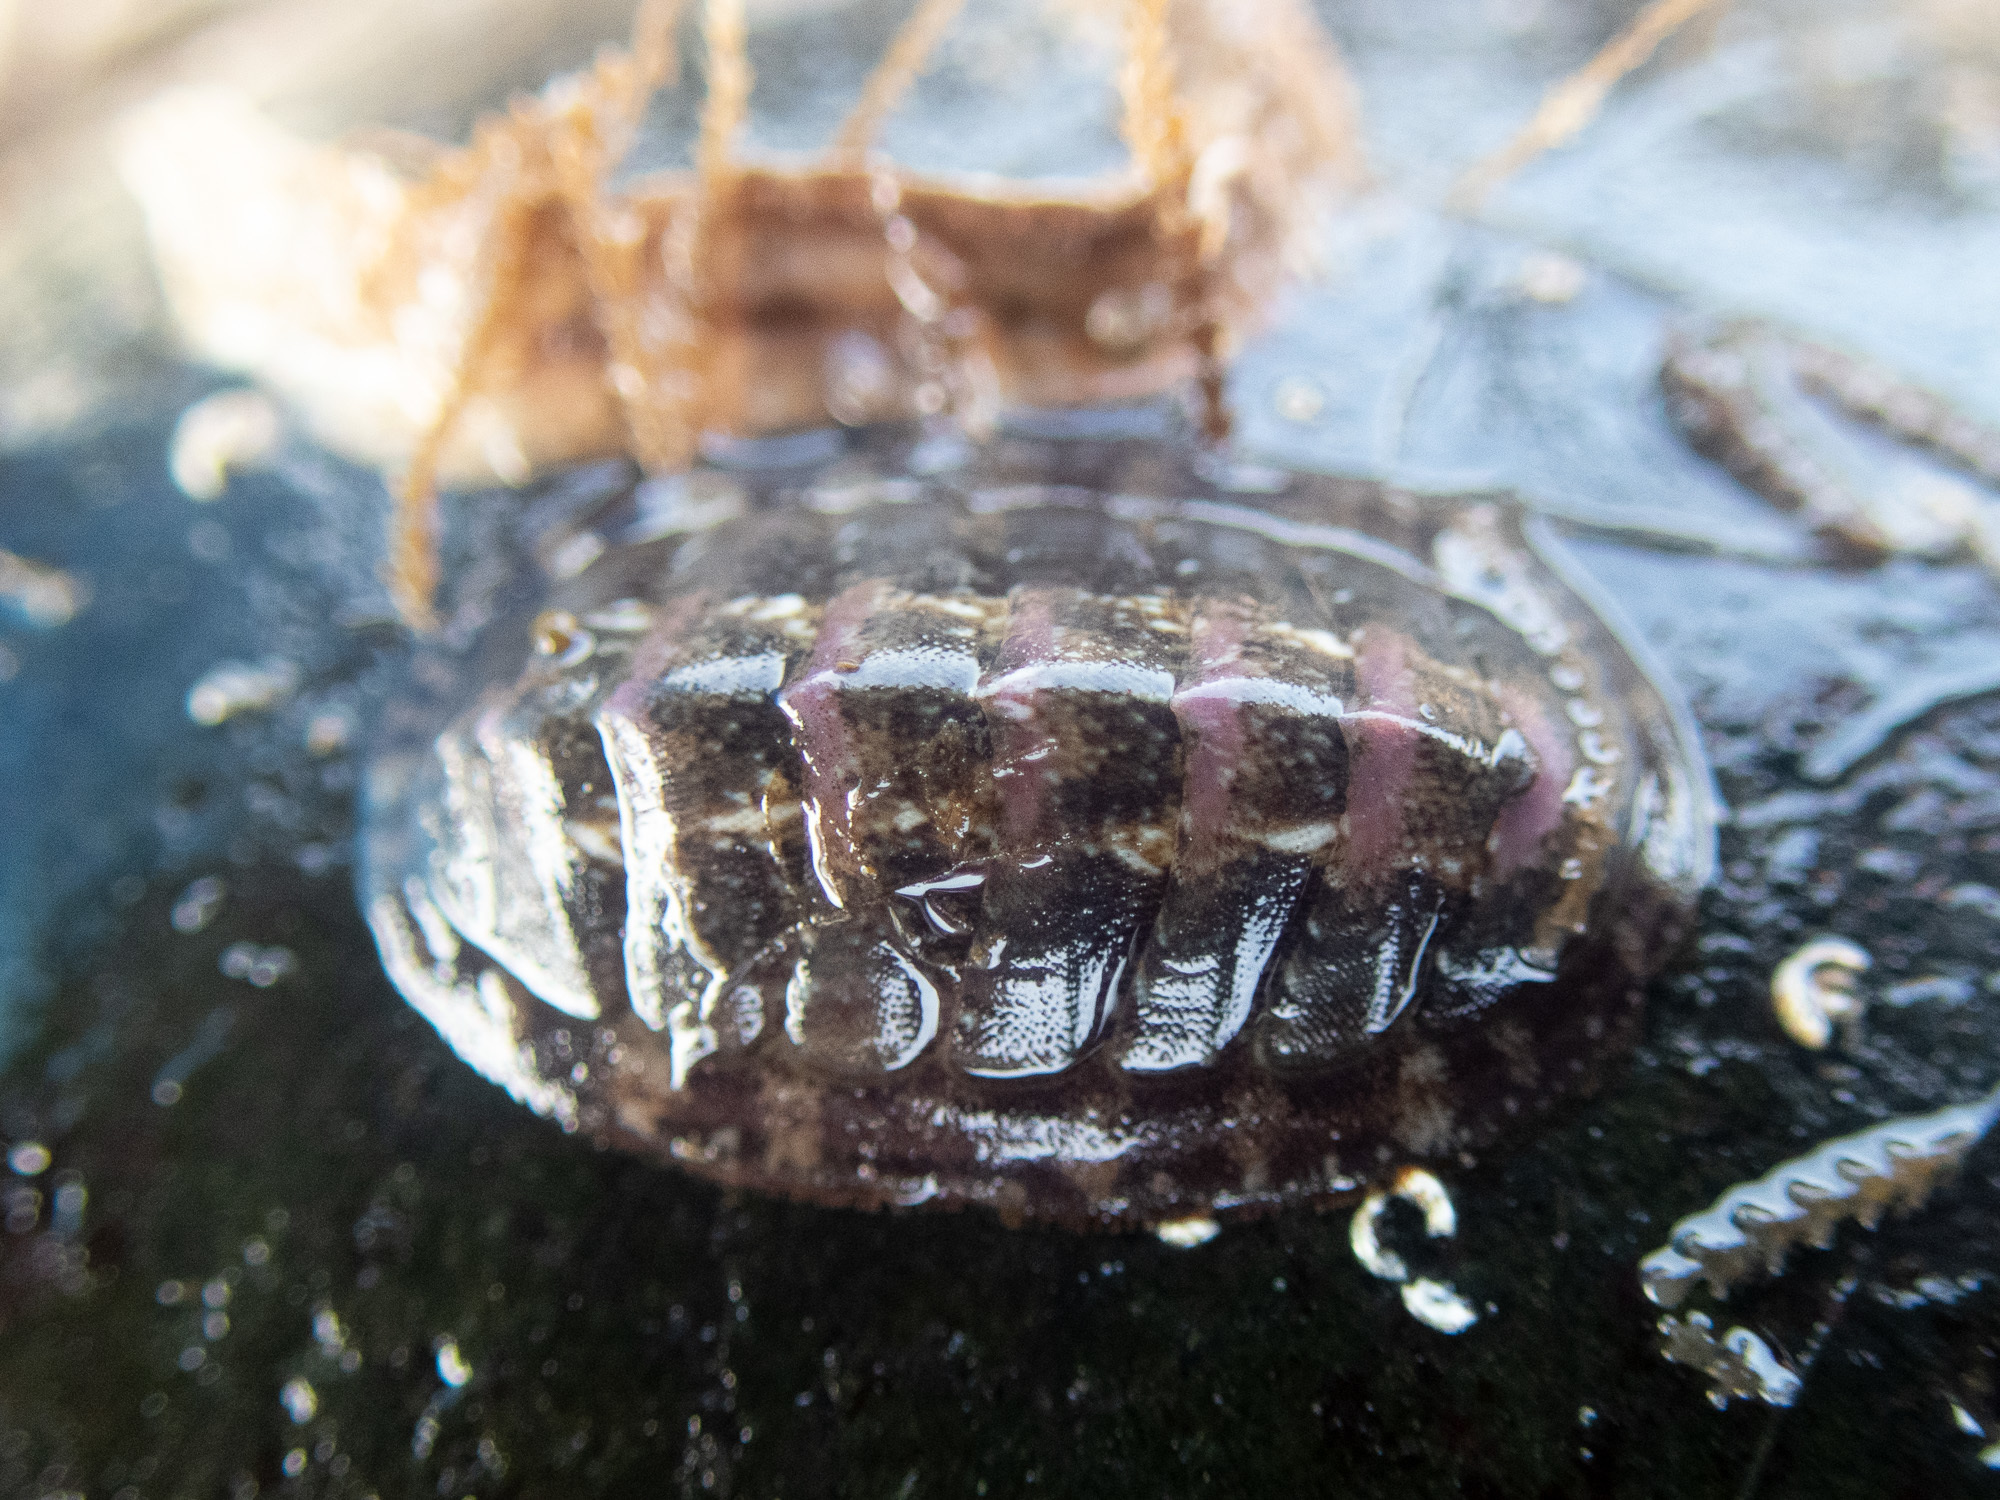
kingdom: Animalia
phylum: Mollusca
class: Polyplacophora
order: Chitonida
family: Tonicellidae
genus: Lepidochitona
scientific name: Lepidochitona cinerea
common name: Cinereous chiton
